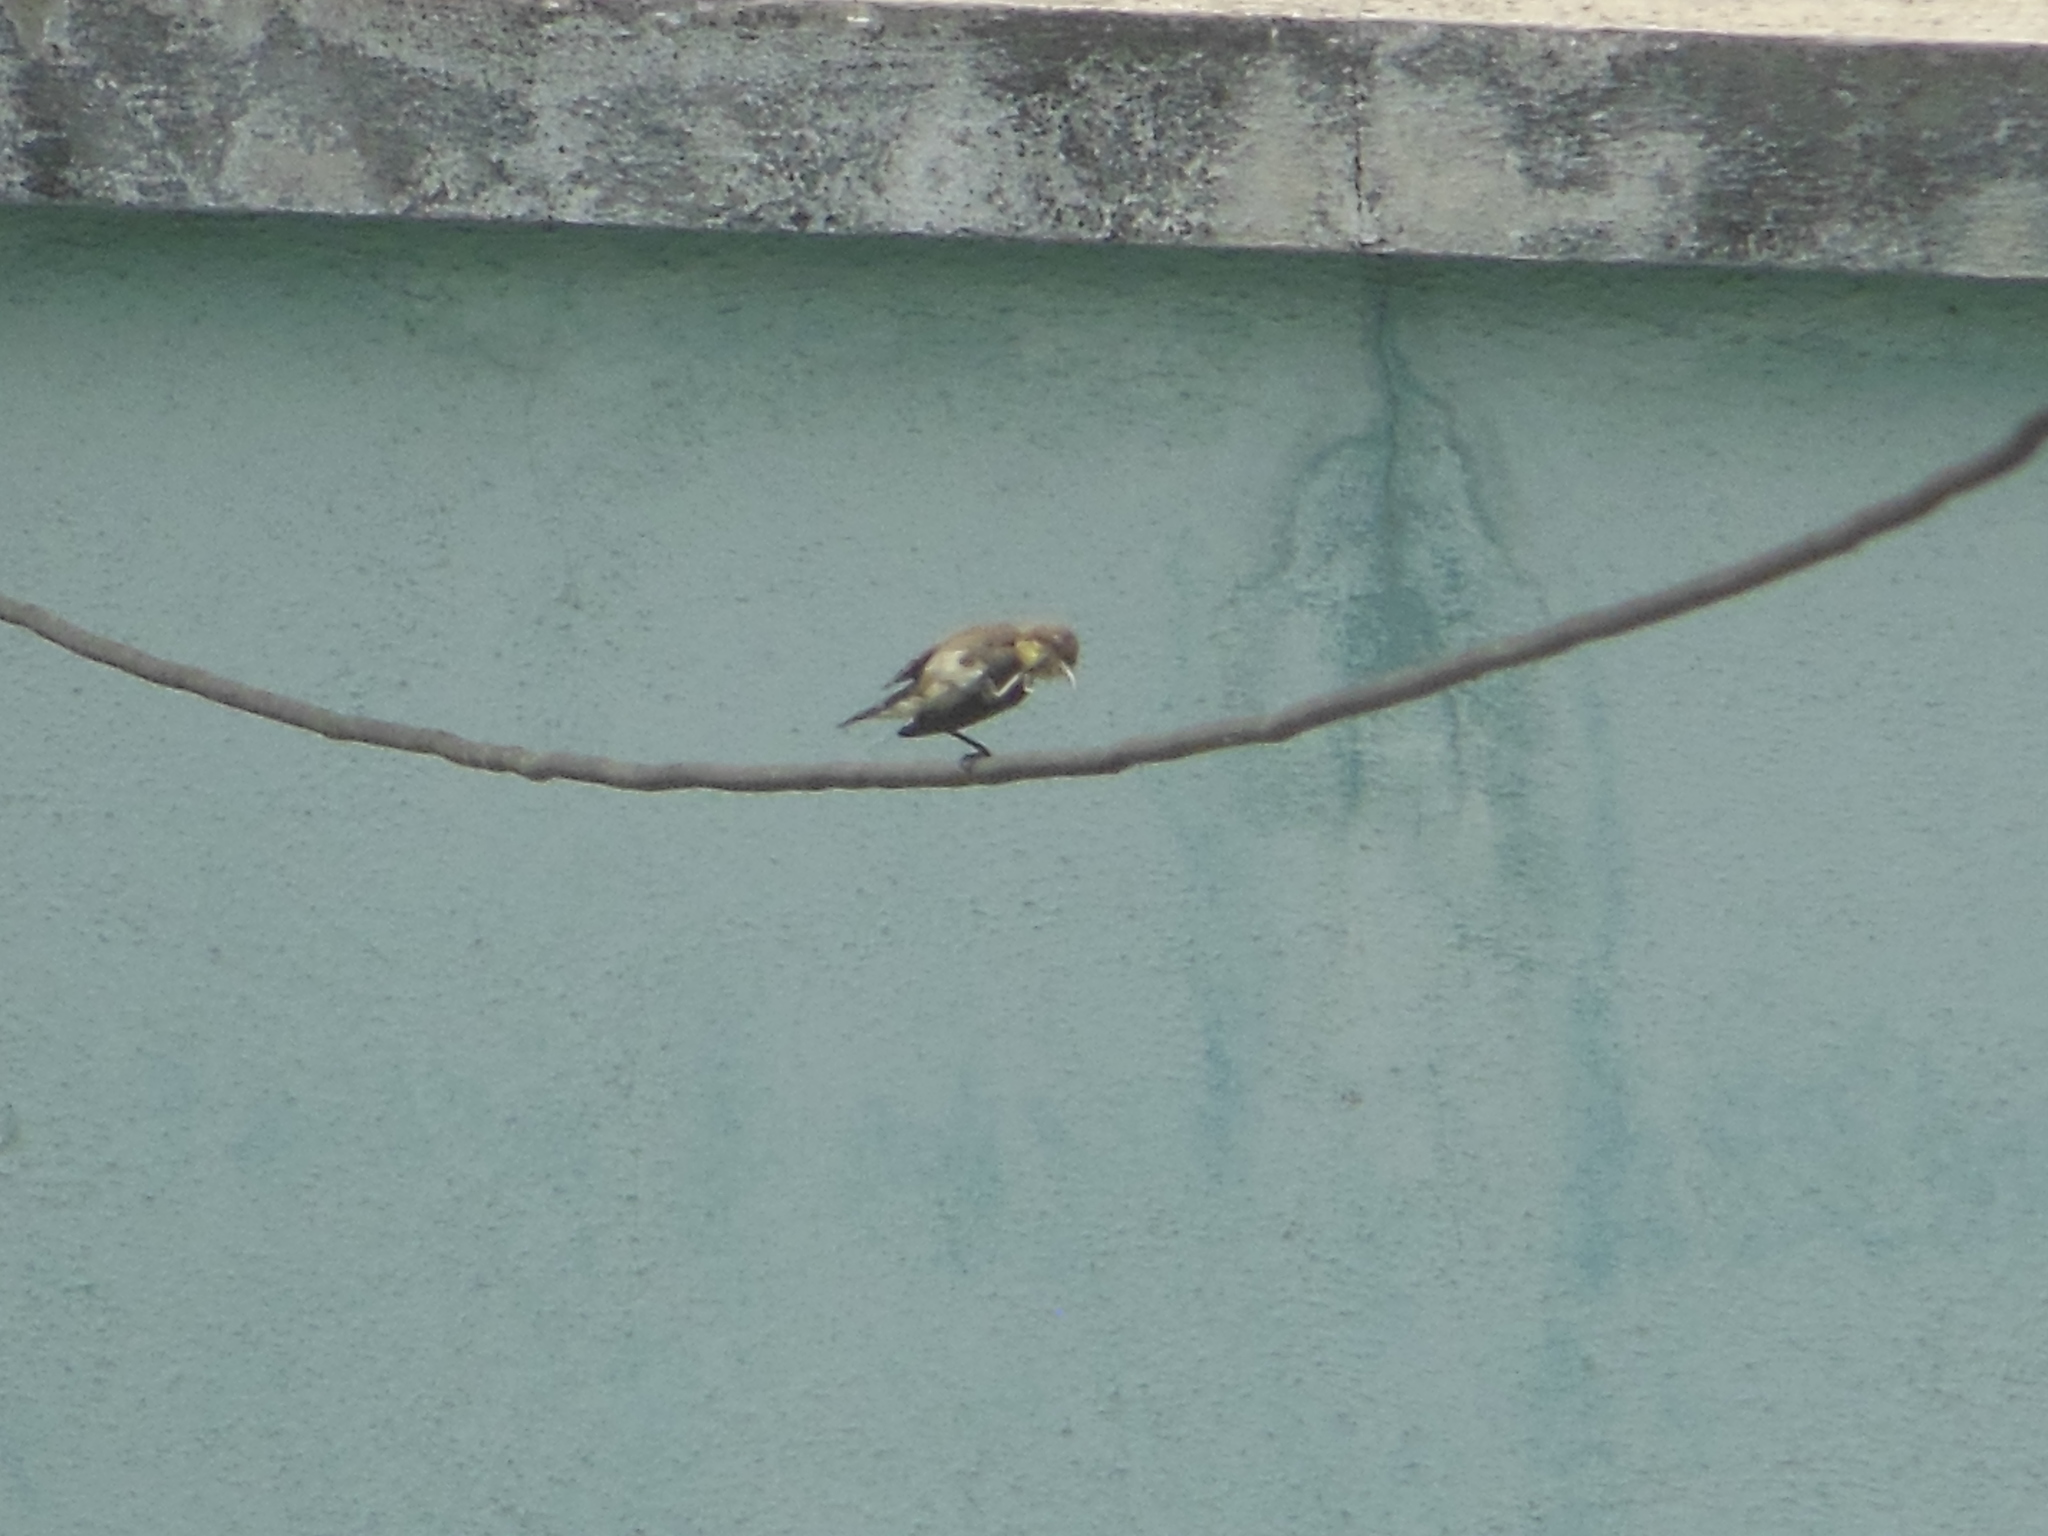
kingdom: Animalia
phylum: Chordata
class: Aves
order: Passeriformes
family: Nectariniidae
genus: Cinnyris
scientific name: Cinnyris asiaticus
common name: Purple sunbird
